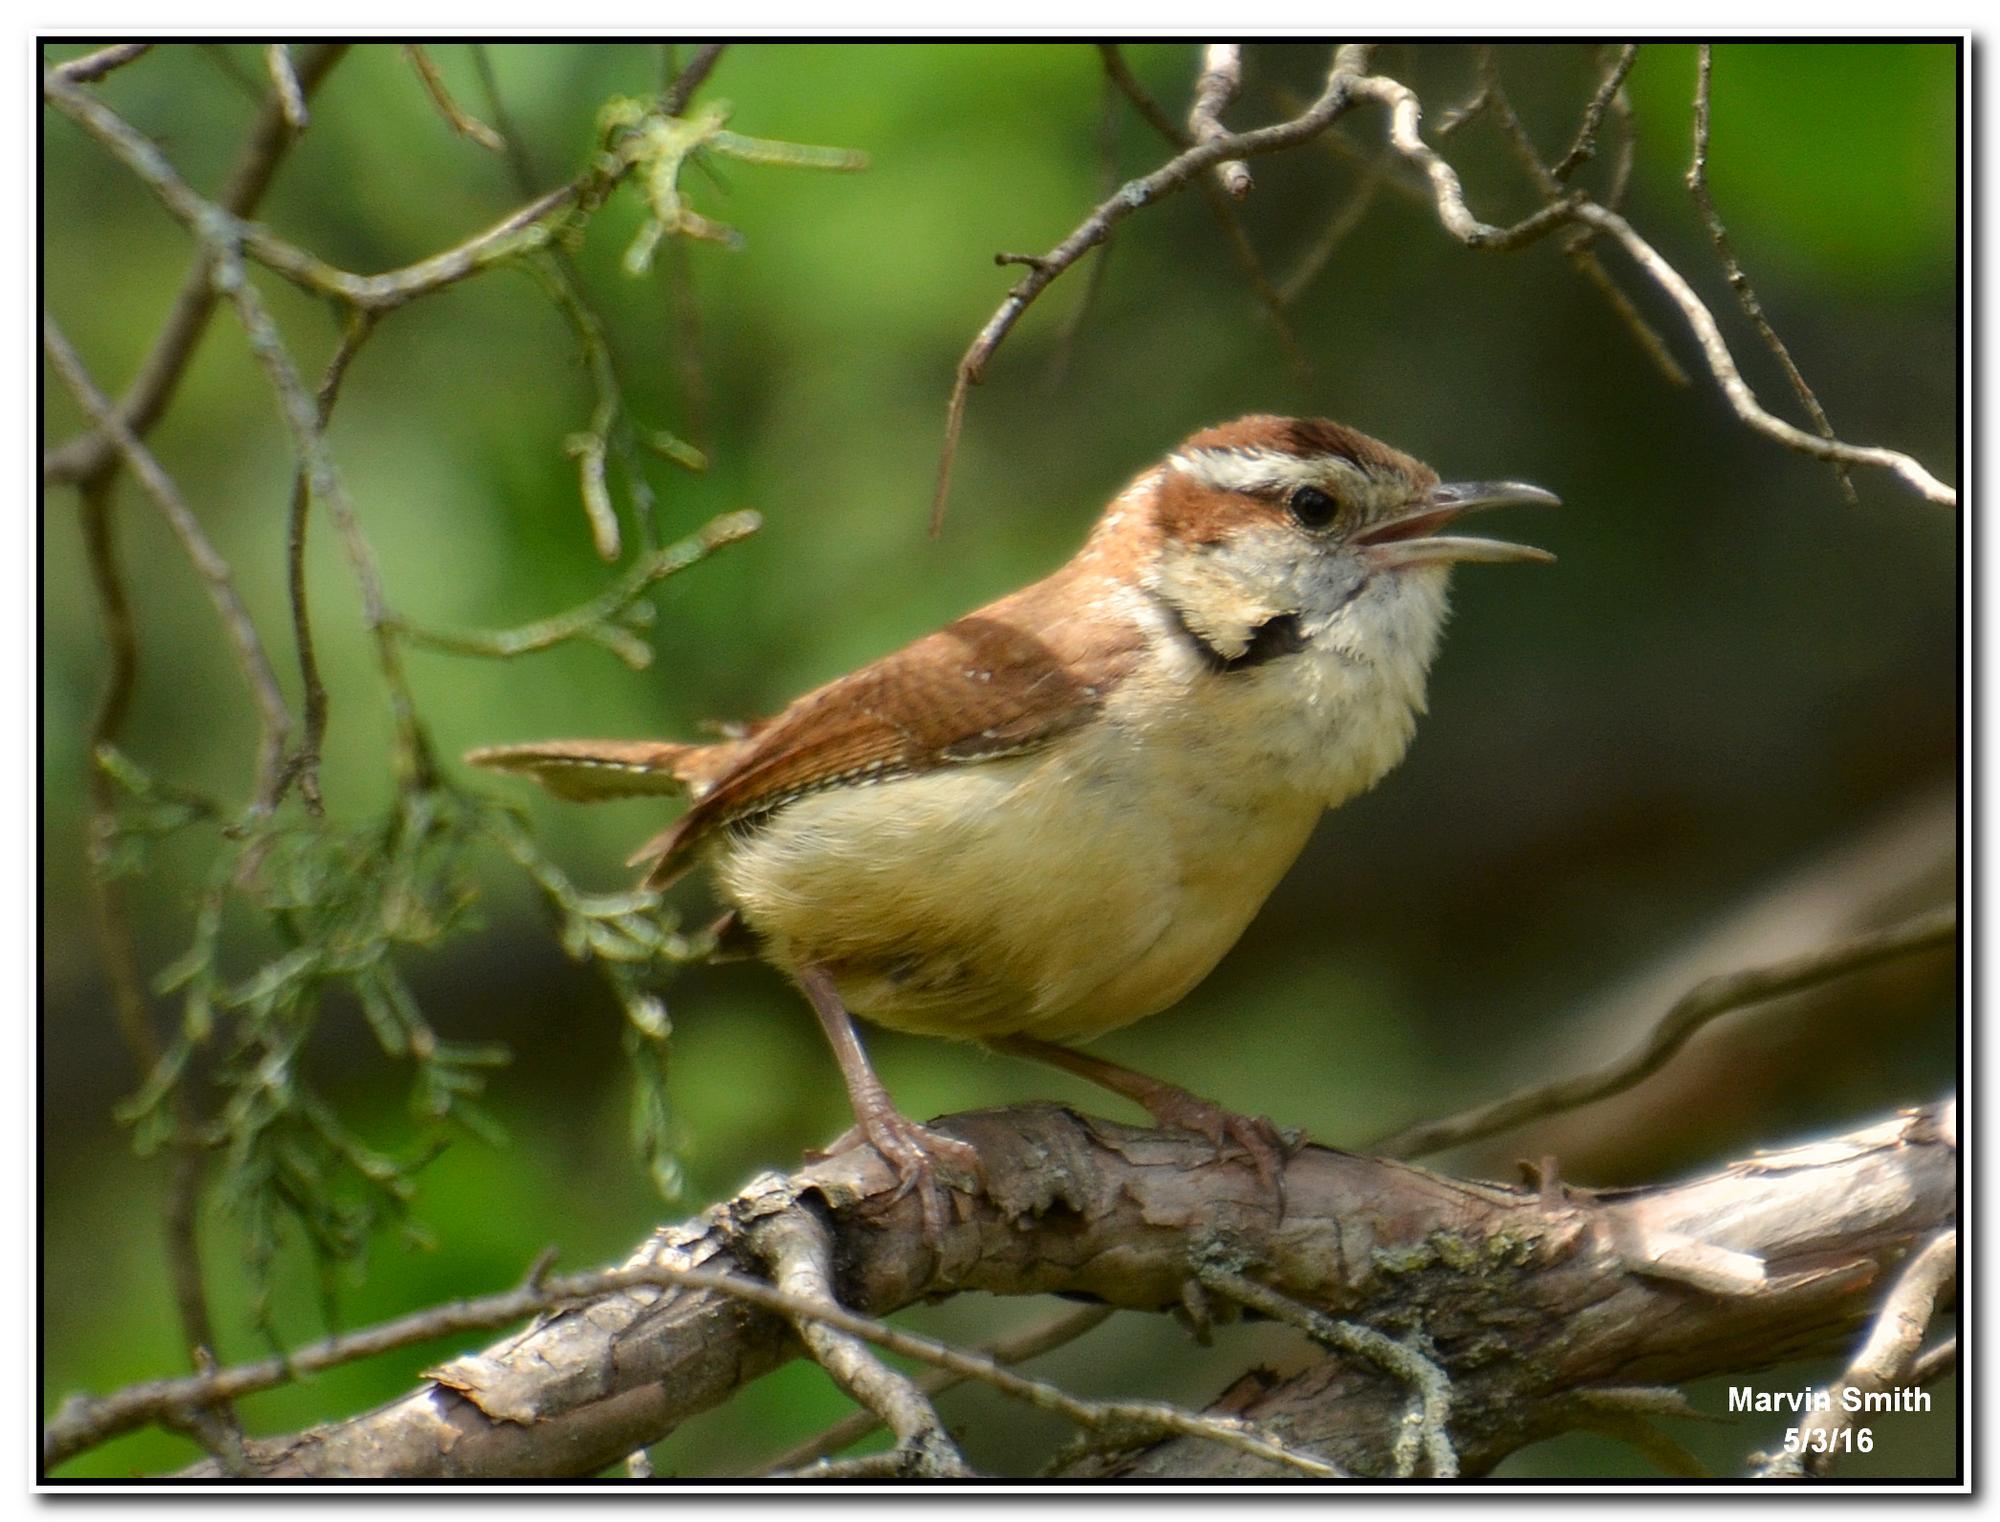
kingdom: Animalia
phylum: Chordata
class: Aves
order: Passeriformes
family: Troglodytidae
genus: Thryothorus
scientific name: Thryothorus ludovicianus
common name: Carolina wren
